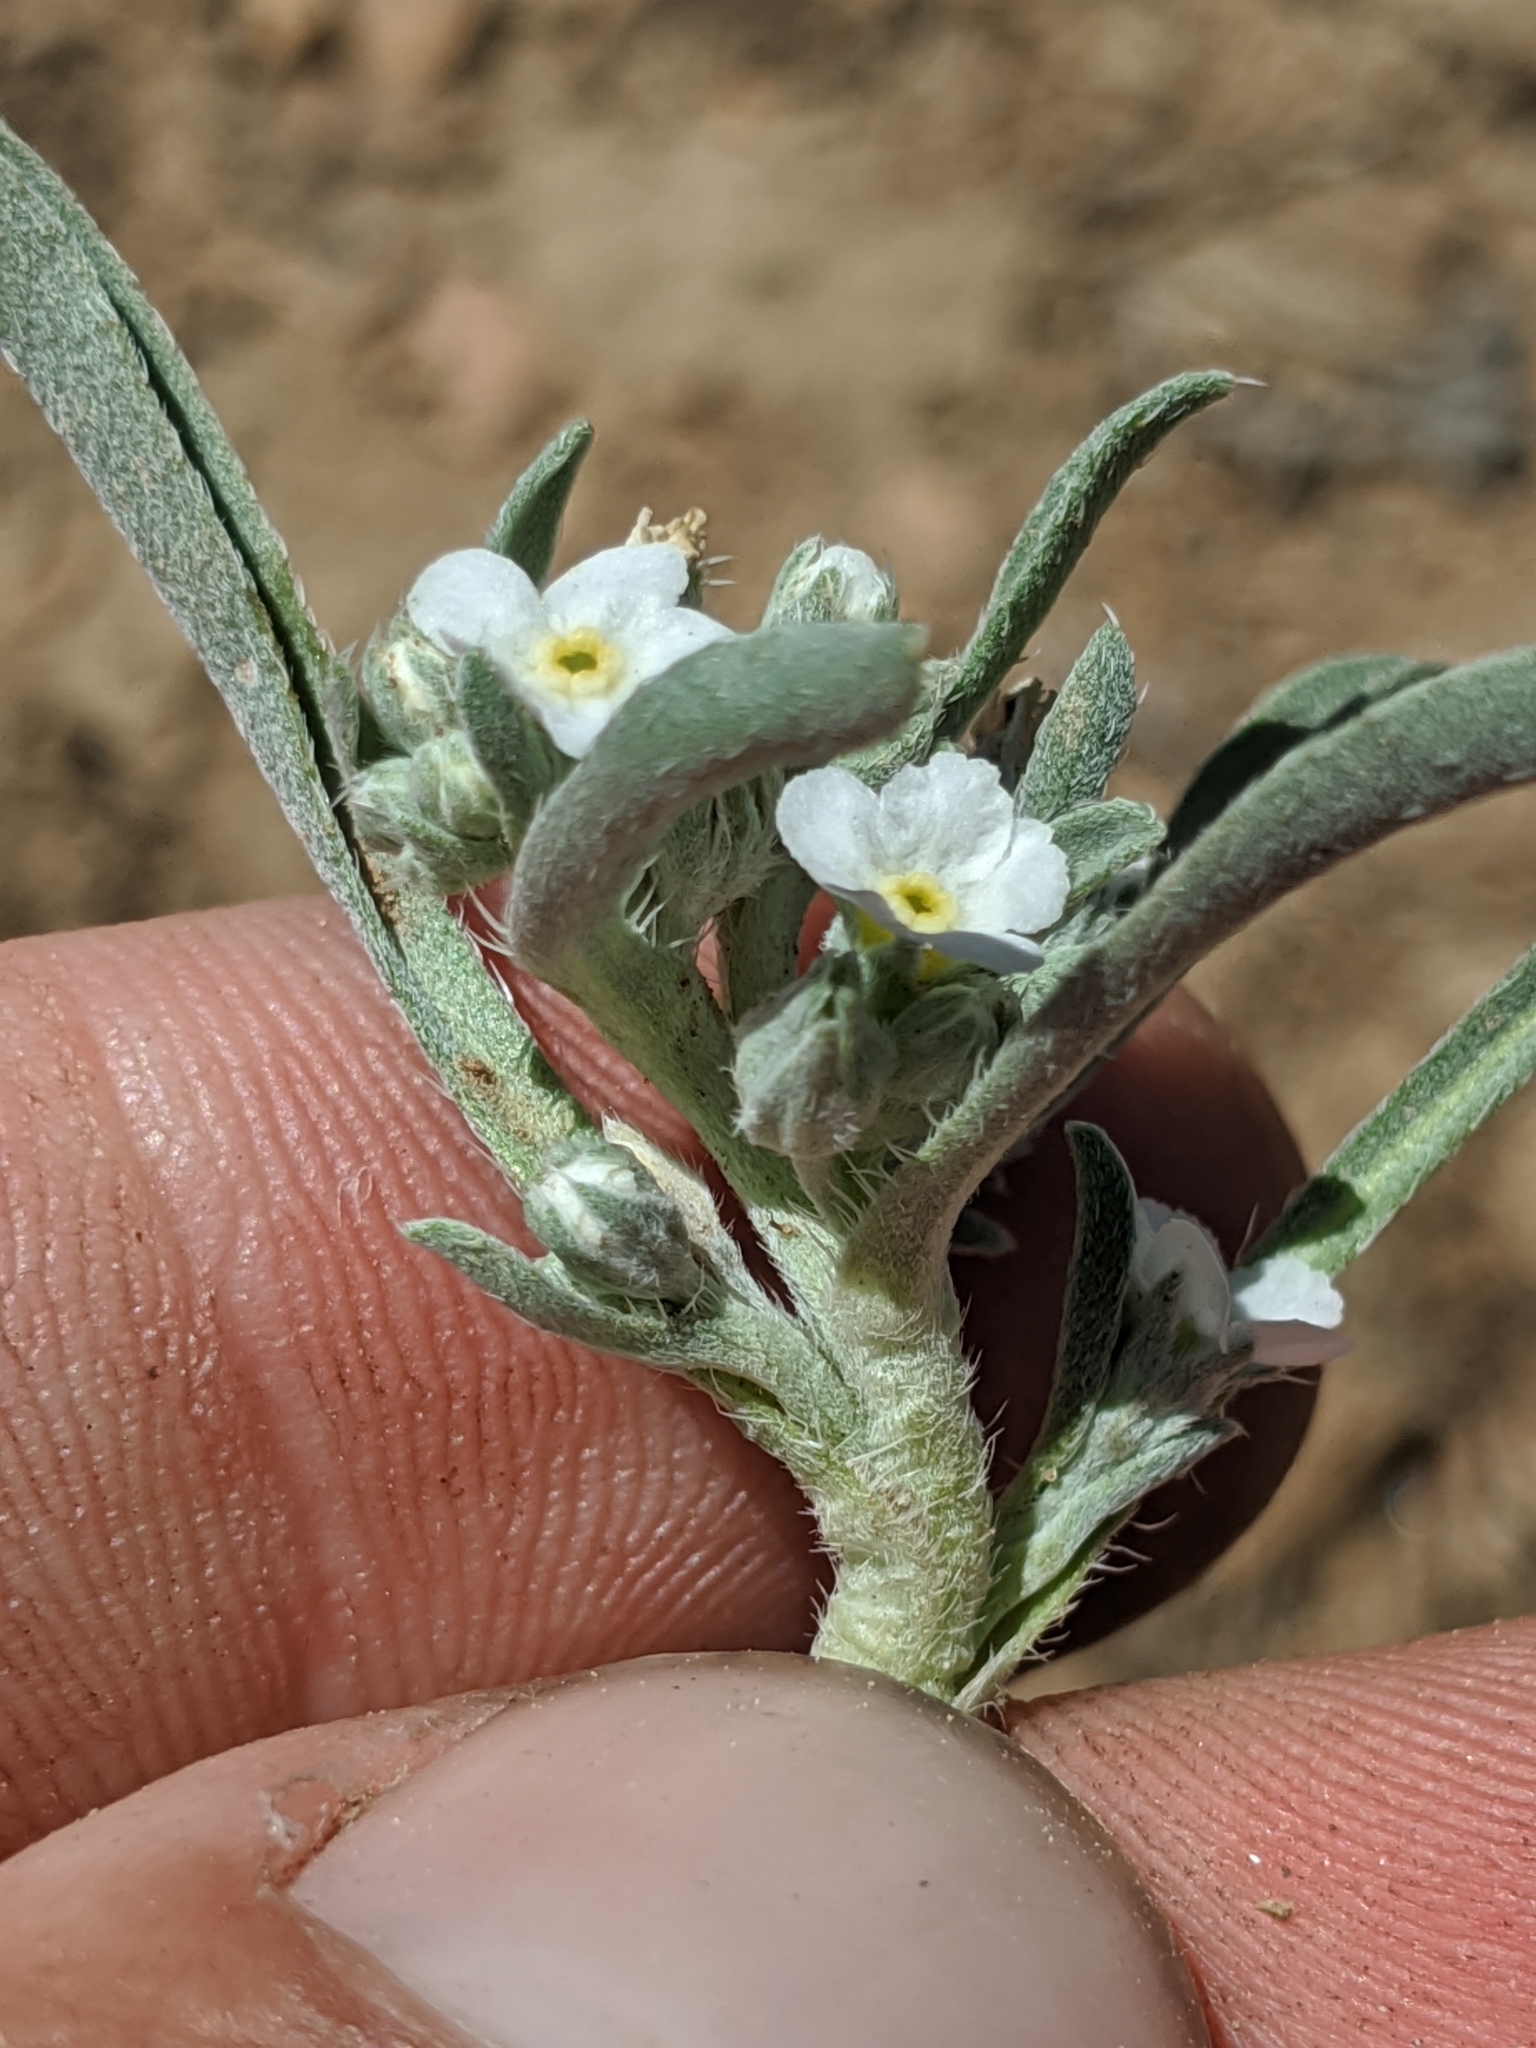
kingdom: Plantae
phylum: Tracheophyta
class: Magnoliopsida
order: Boraginales
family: Boraginaceae
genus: Oreocarya
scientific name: Oreocarya abortiva
